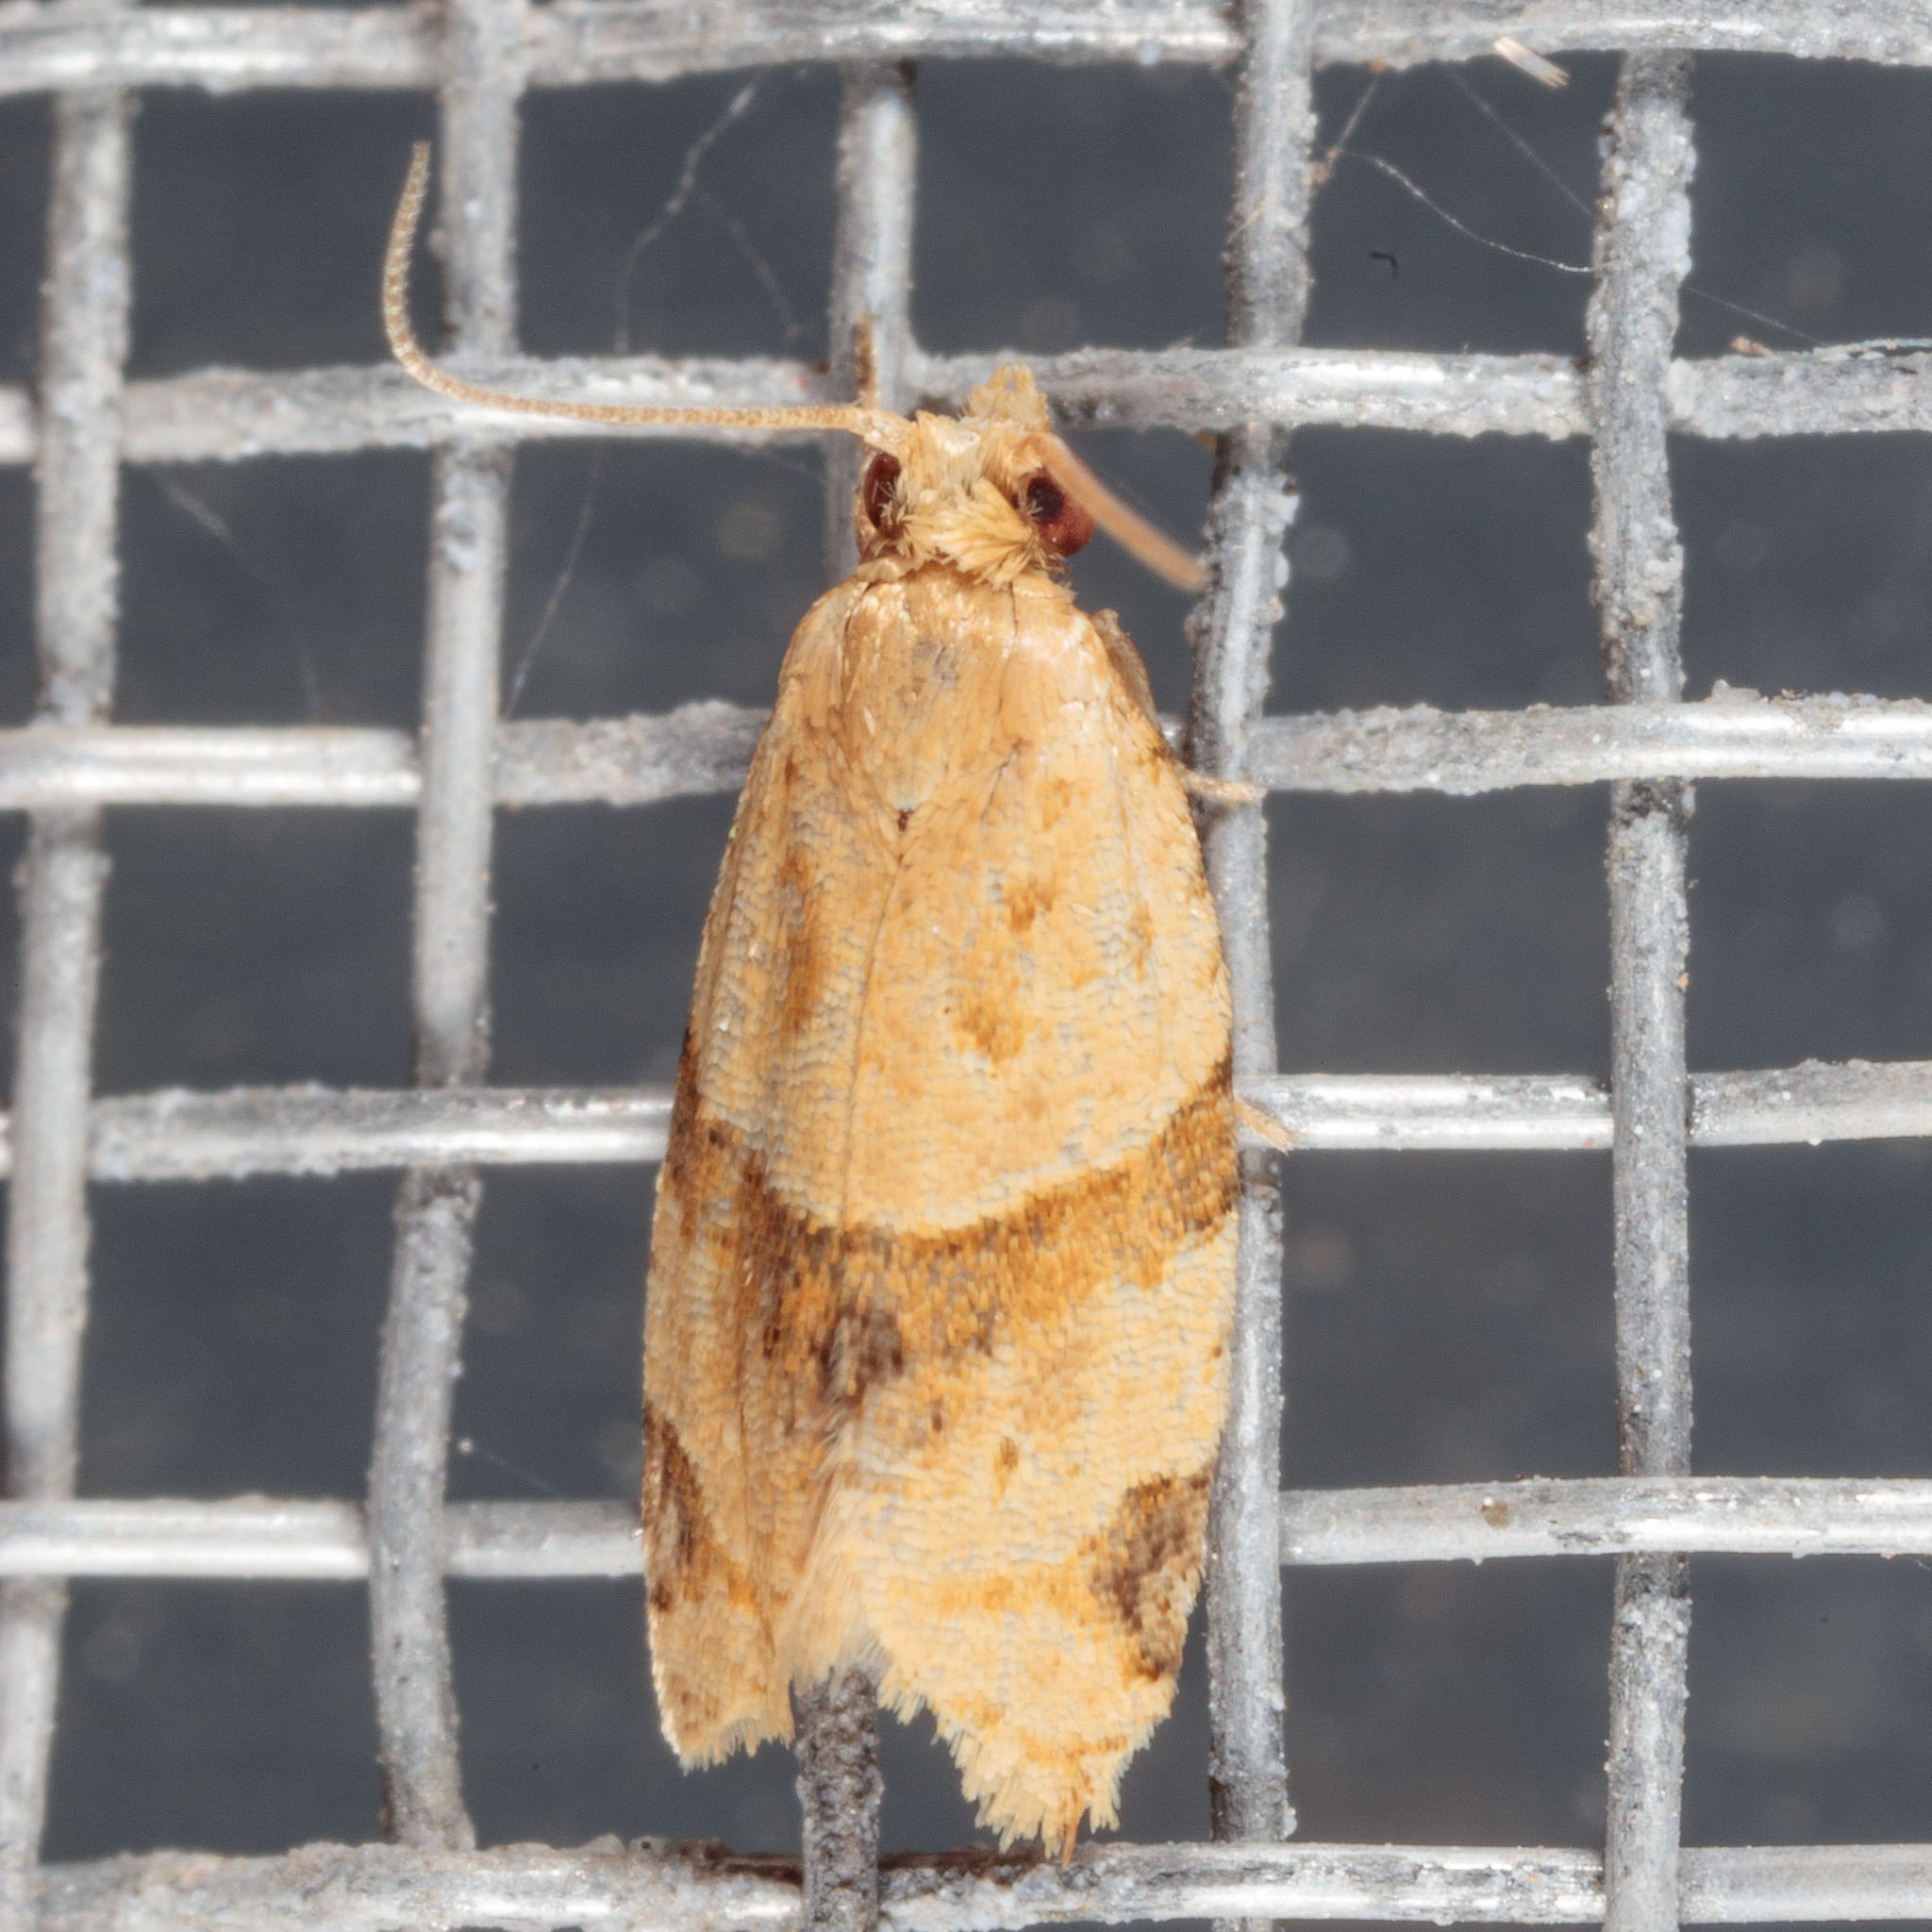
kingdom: Animalia
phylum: Arthropoda
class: Insecta
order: Lepidoptera
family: Tortricidae
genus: Clepsis
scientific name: Clepsis peritana
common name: Garden tortrix
